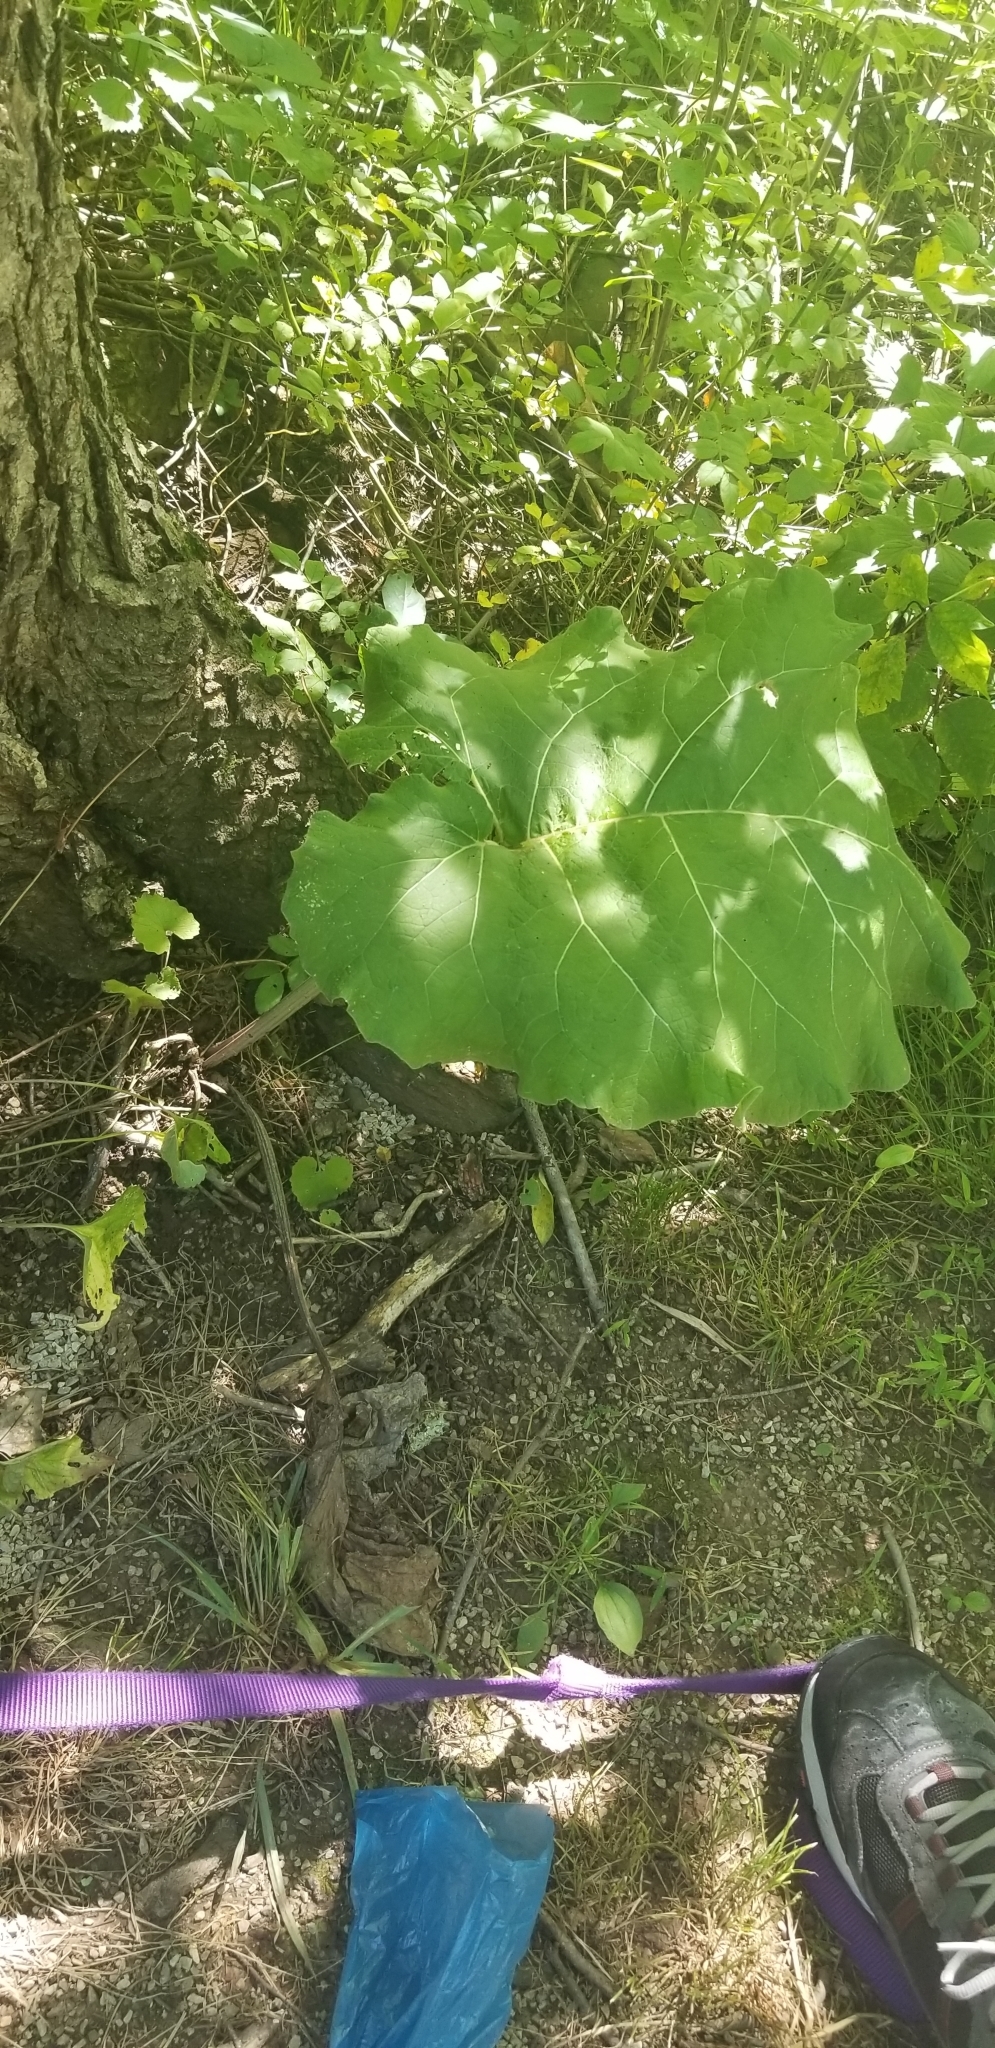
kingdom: Plantae
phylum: Tracheophyta
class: Magnoliopsida
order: Asterales
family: Asteraceae
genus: Arctium
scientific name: Arctium
